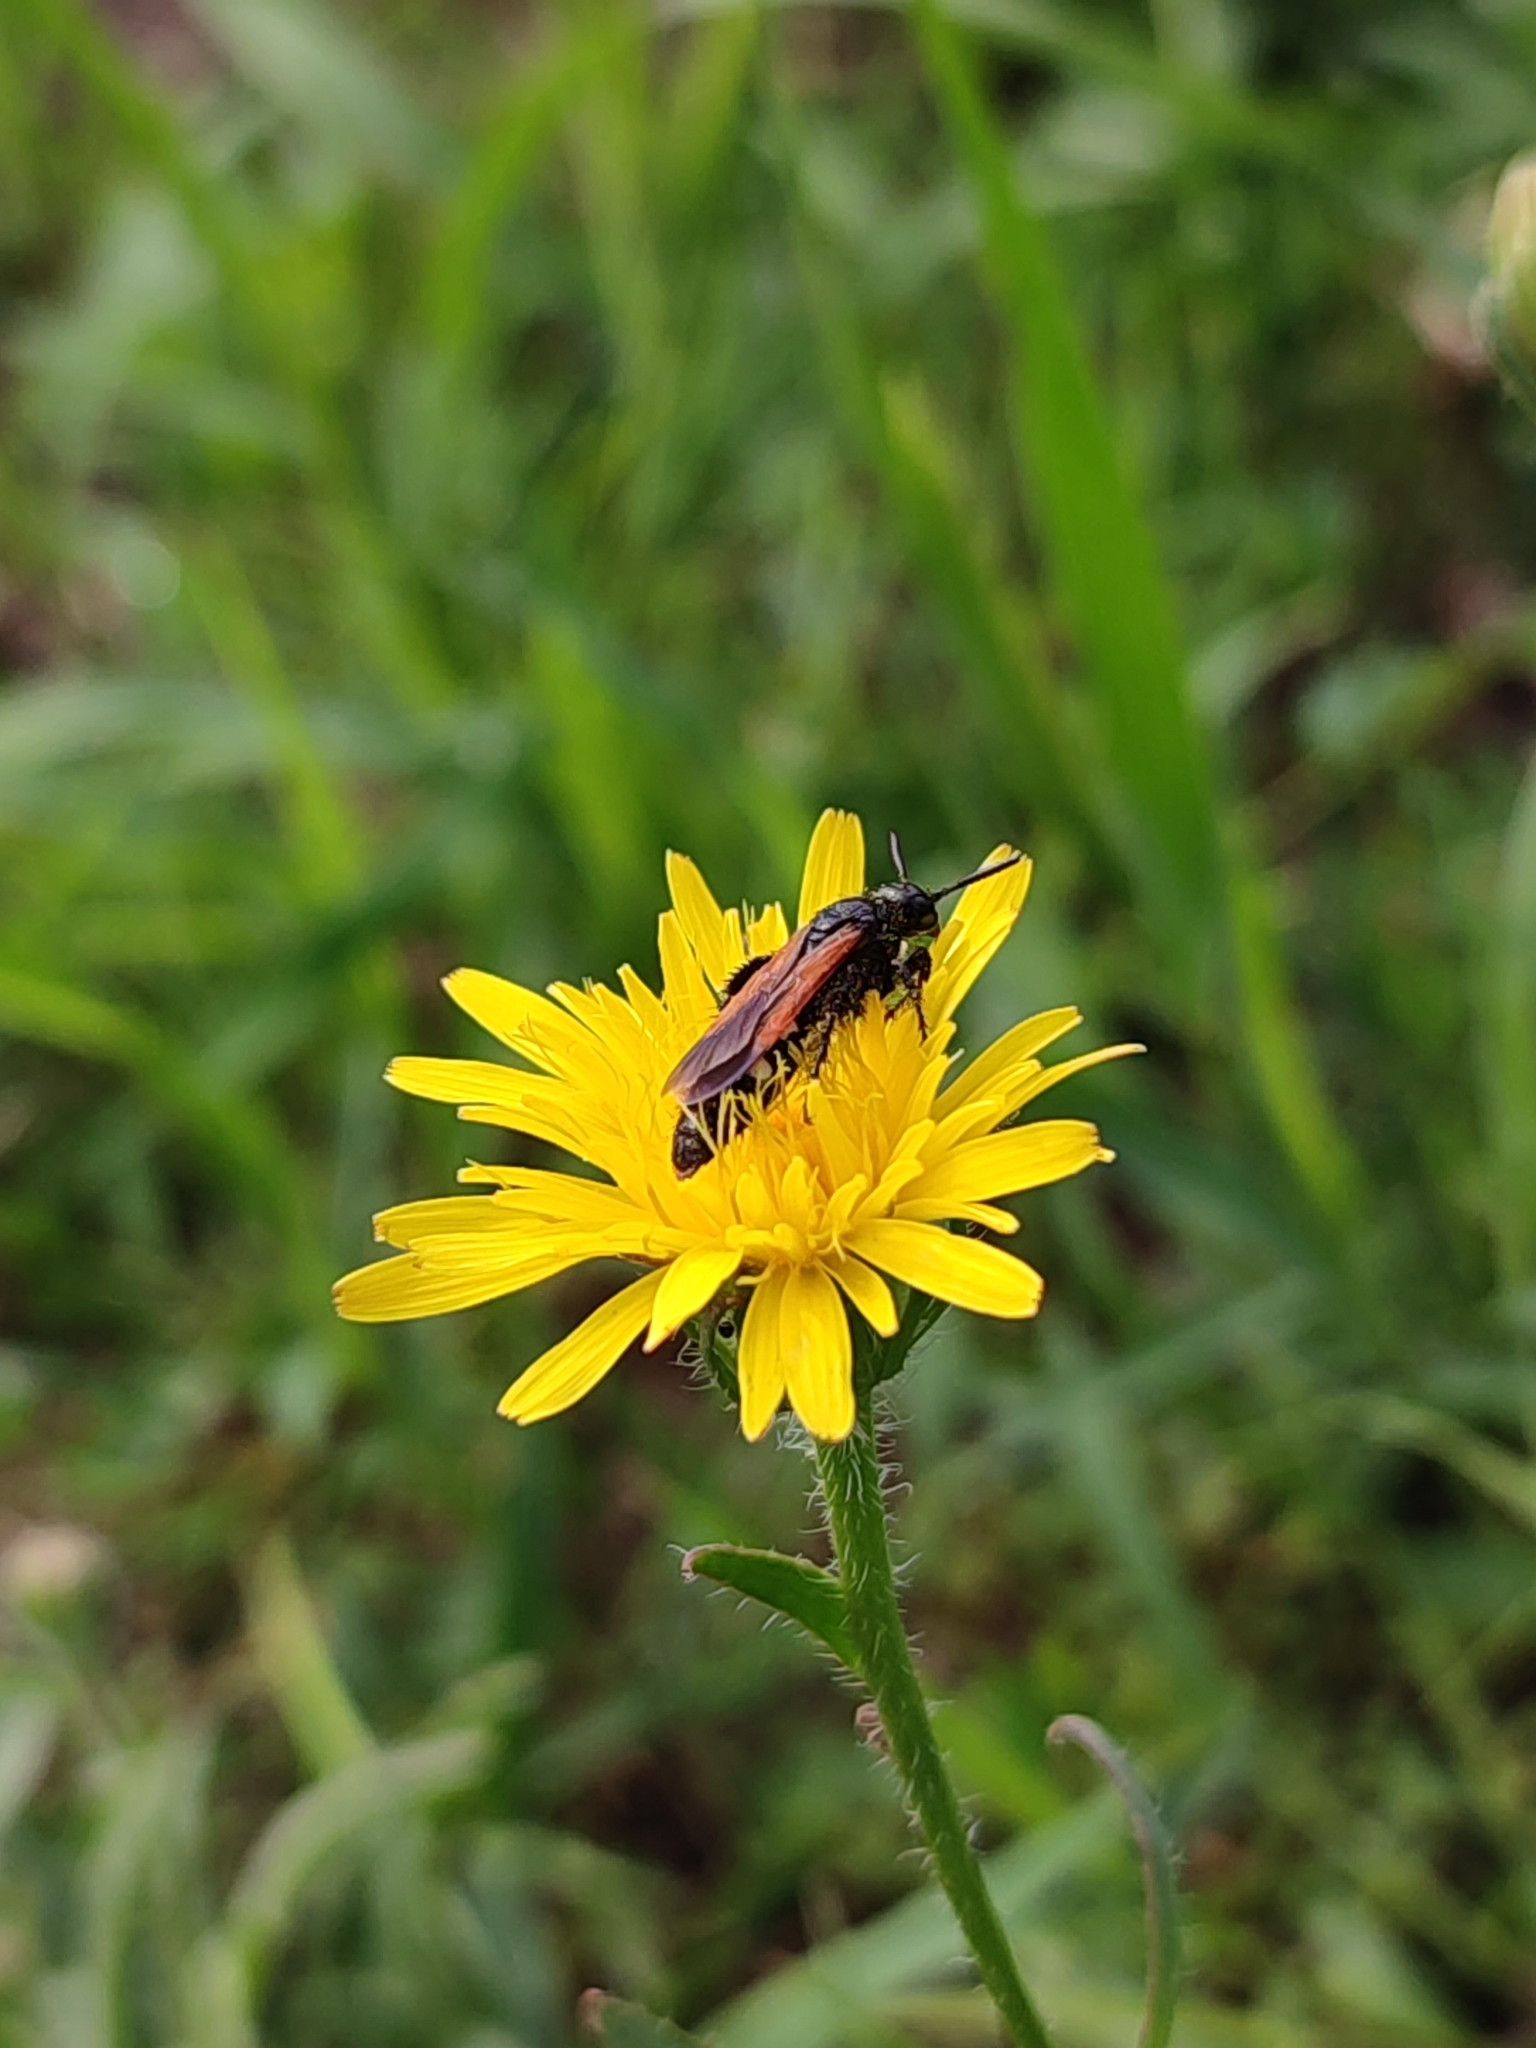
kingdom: Animalia
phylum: Arthropoda
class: Insecta
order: Hymenoptera
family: Vespidae
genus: Vespa
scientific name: Vespa sexmaculata
